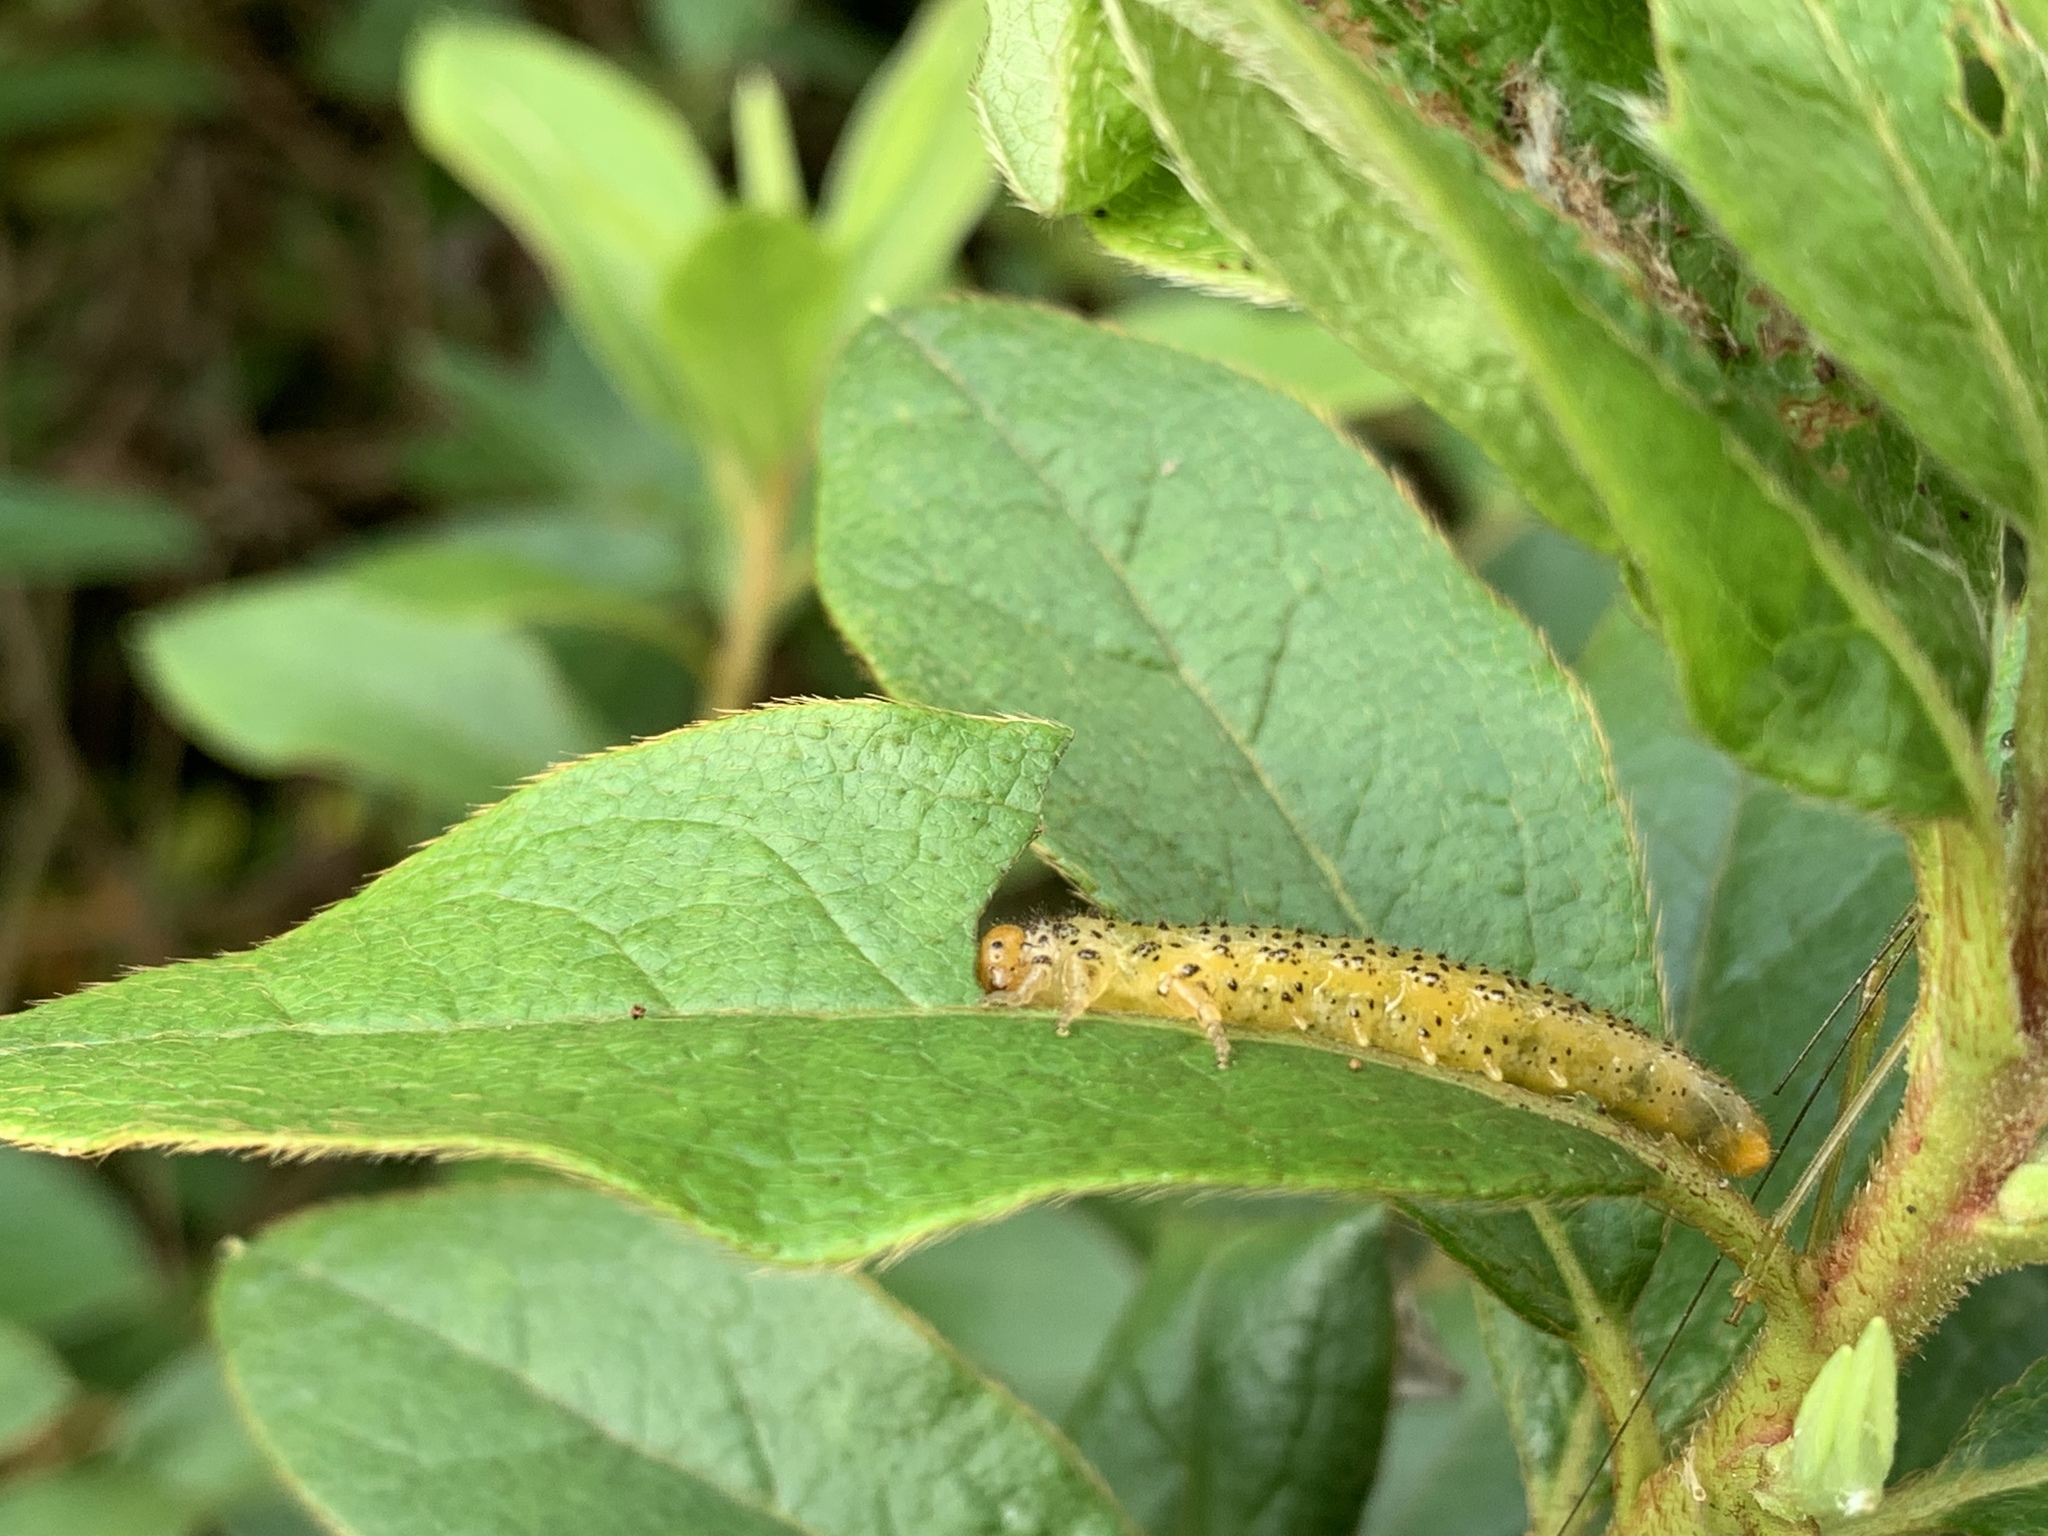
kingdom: Animalia
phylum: Arthropoda
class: Insecta
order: Hymenoptera
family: Argidae
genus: Arge
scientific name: Arge similis
